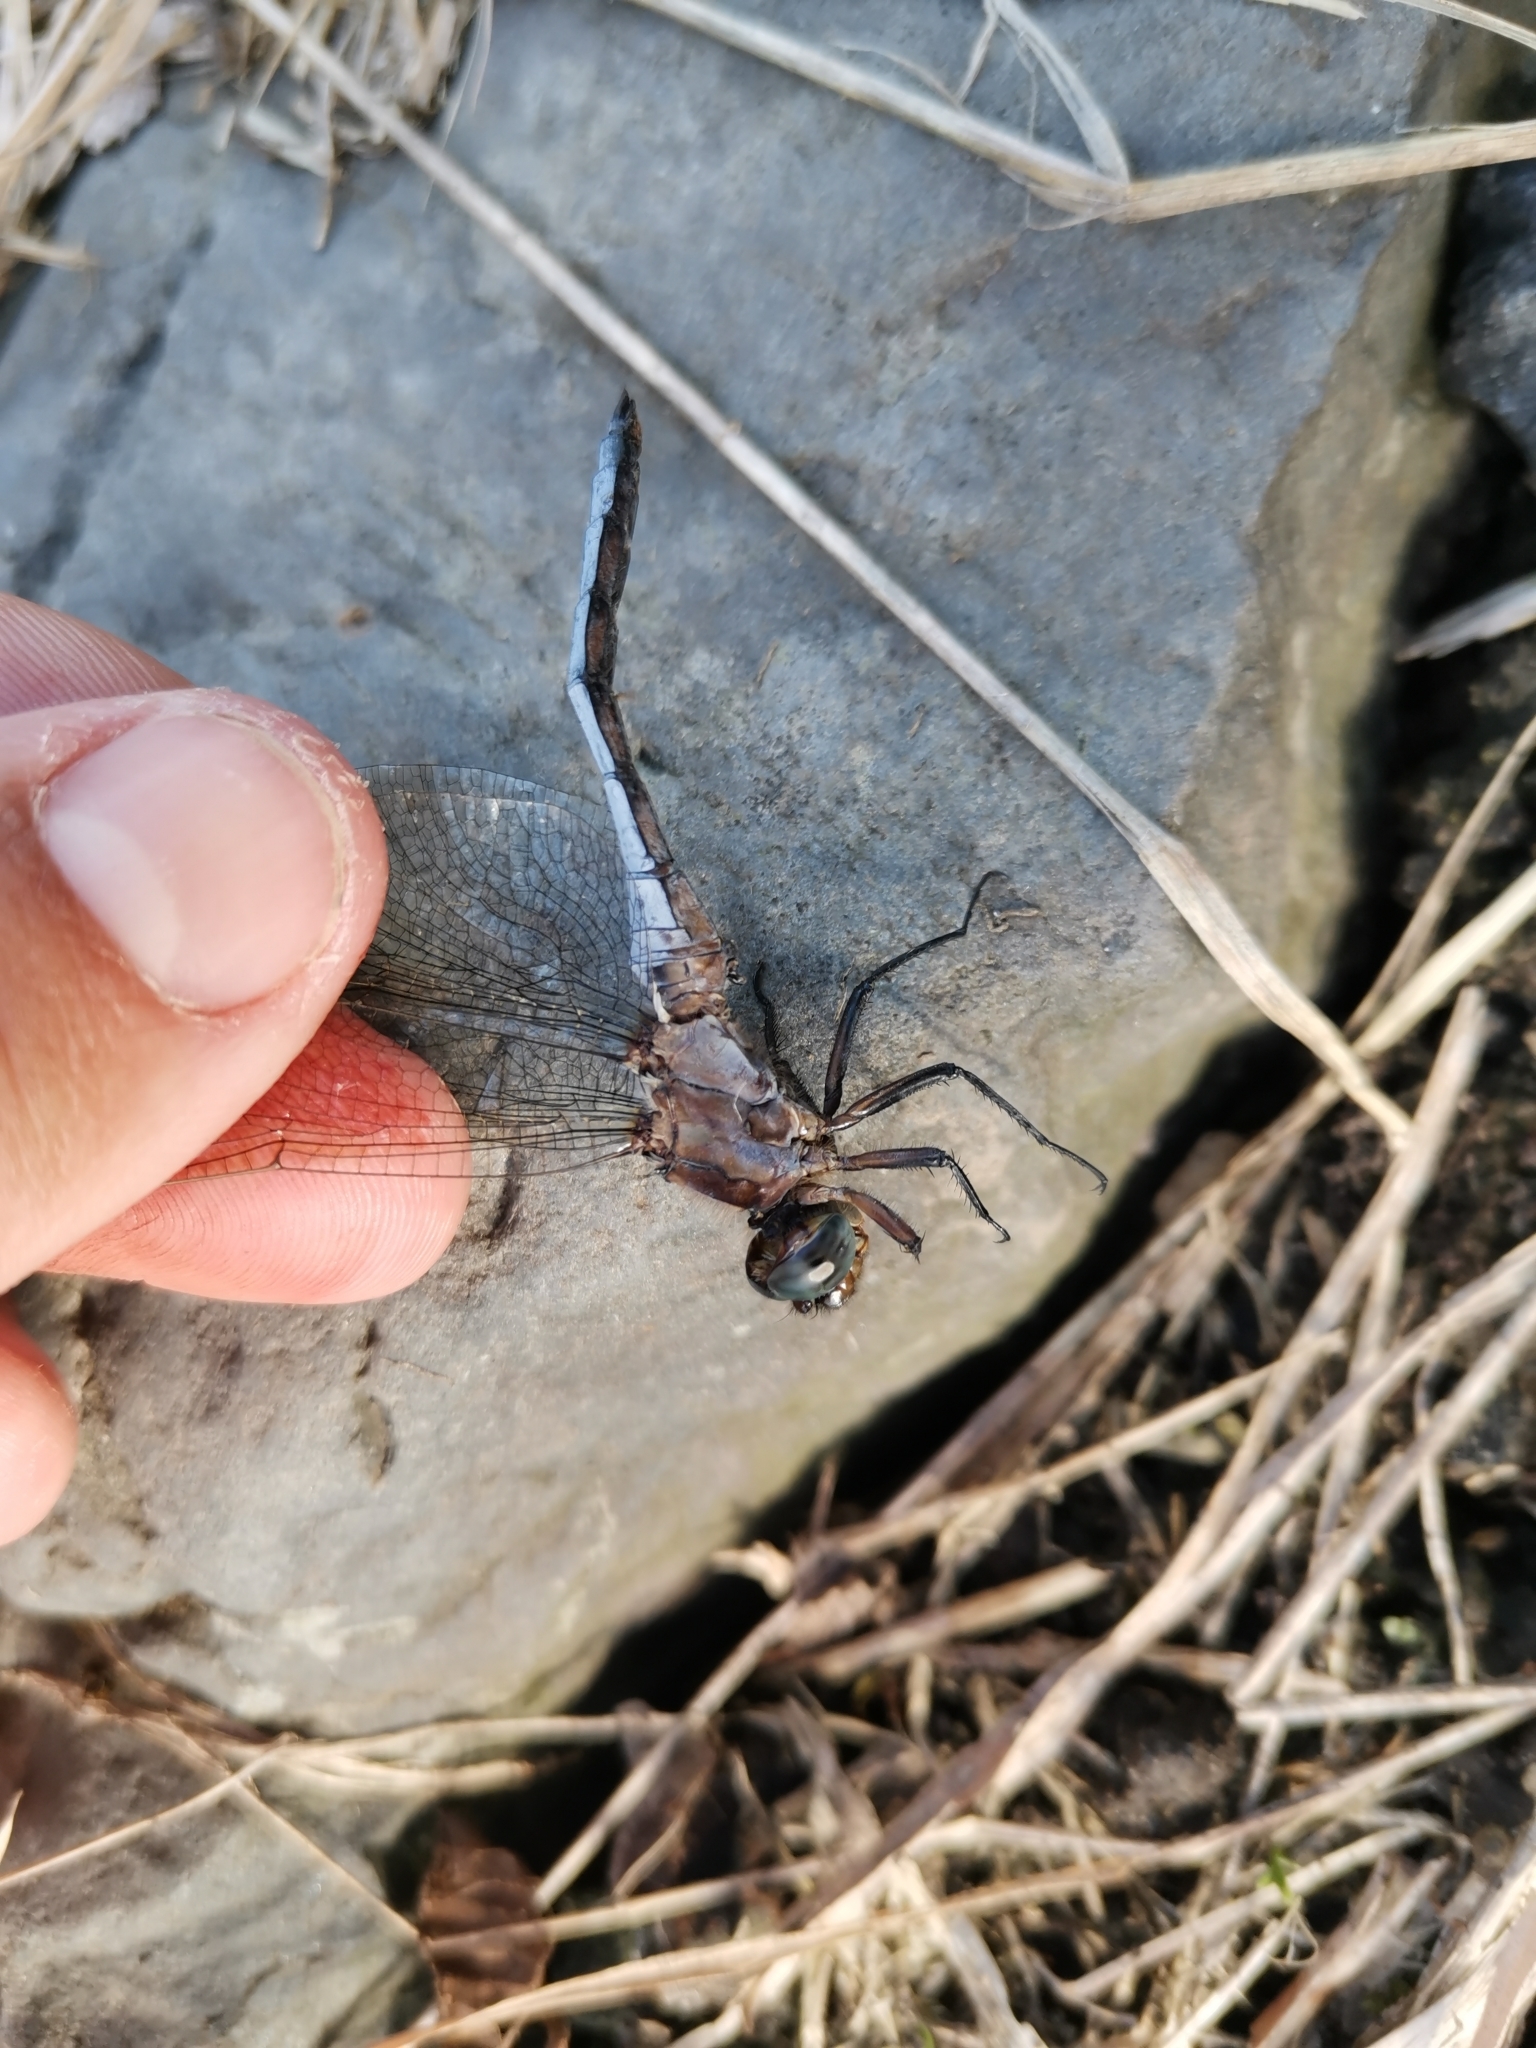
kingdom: Animalia
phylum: Arthropoda
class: Insecta
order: Odonata
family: Libellulidae
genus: Orthetrum
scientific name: Orthetrum coerulescens
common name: Keeled skimmer
